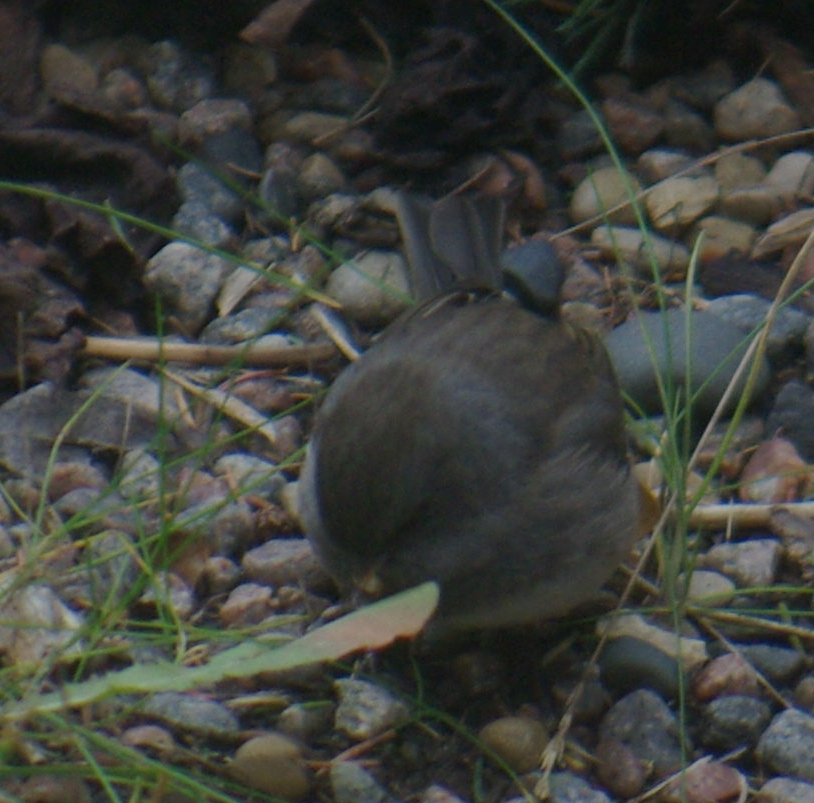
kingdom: Animalia
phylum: Chordata
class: Aves
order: Passeriformes
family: Passerellidae
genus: Junco
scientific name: Junco hyemalis
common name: Dark-eyed junco
